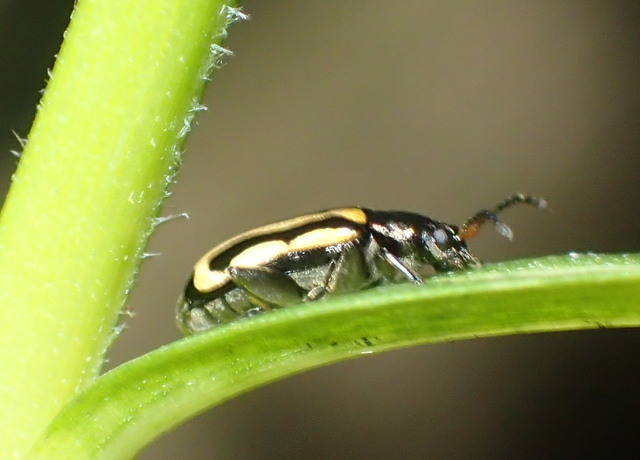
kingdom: Animalia
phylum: Arthropoda
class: Insecta
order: Coleoptera
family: Chrysomelidae
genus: Agasicles
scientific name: Agasicles hygrophila
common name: Alligatorweed flea beetle
